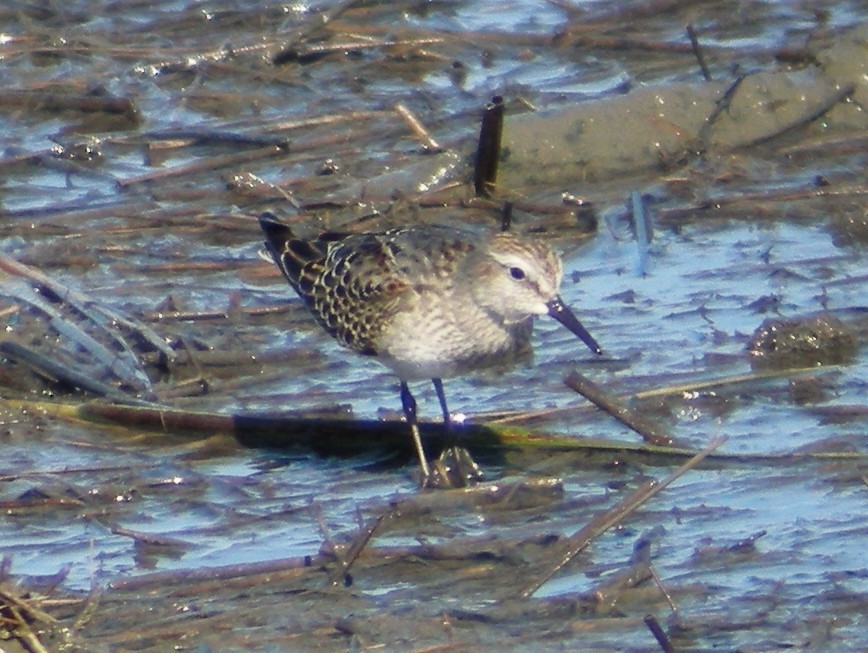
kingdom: Animalia
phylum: Chordata
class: Aves
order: Charadriiformes
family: Scolopacidae
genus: Calidris
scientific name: Calidris fuscicollis
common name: White-rumped sandpiper
